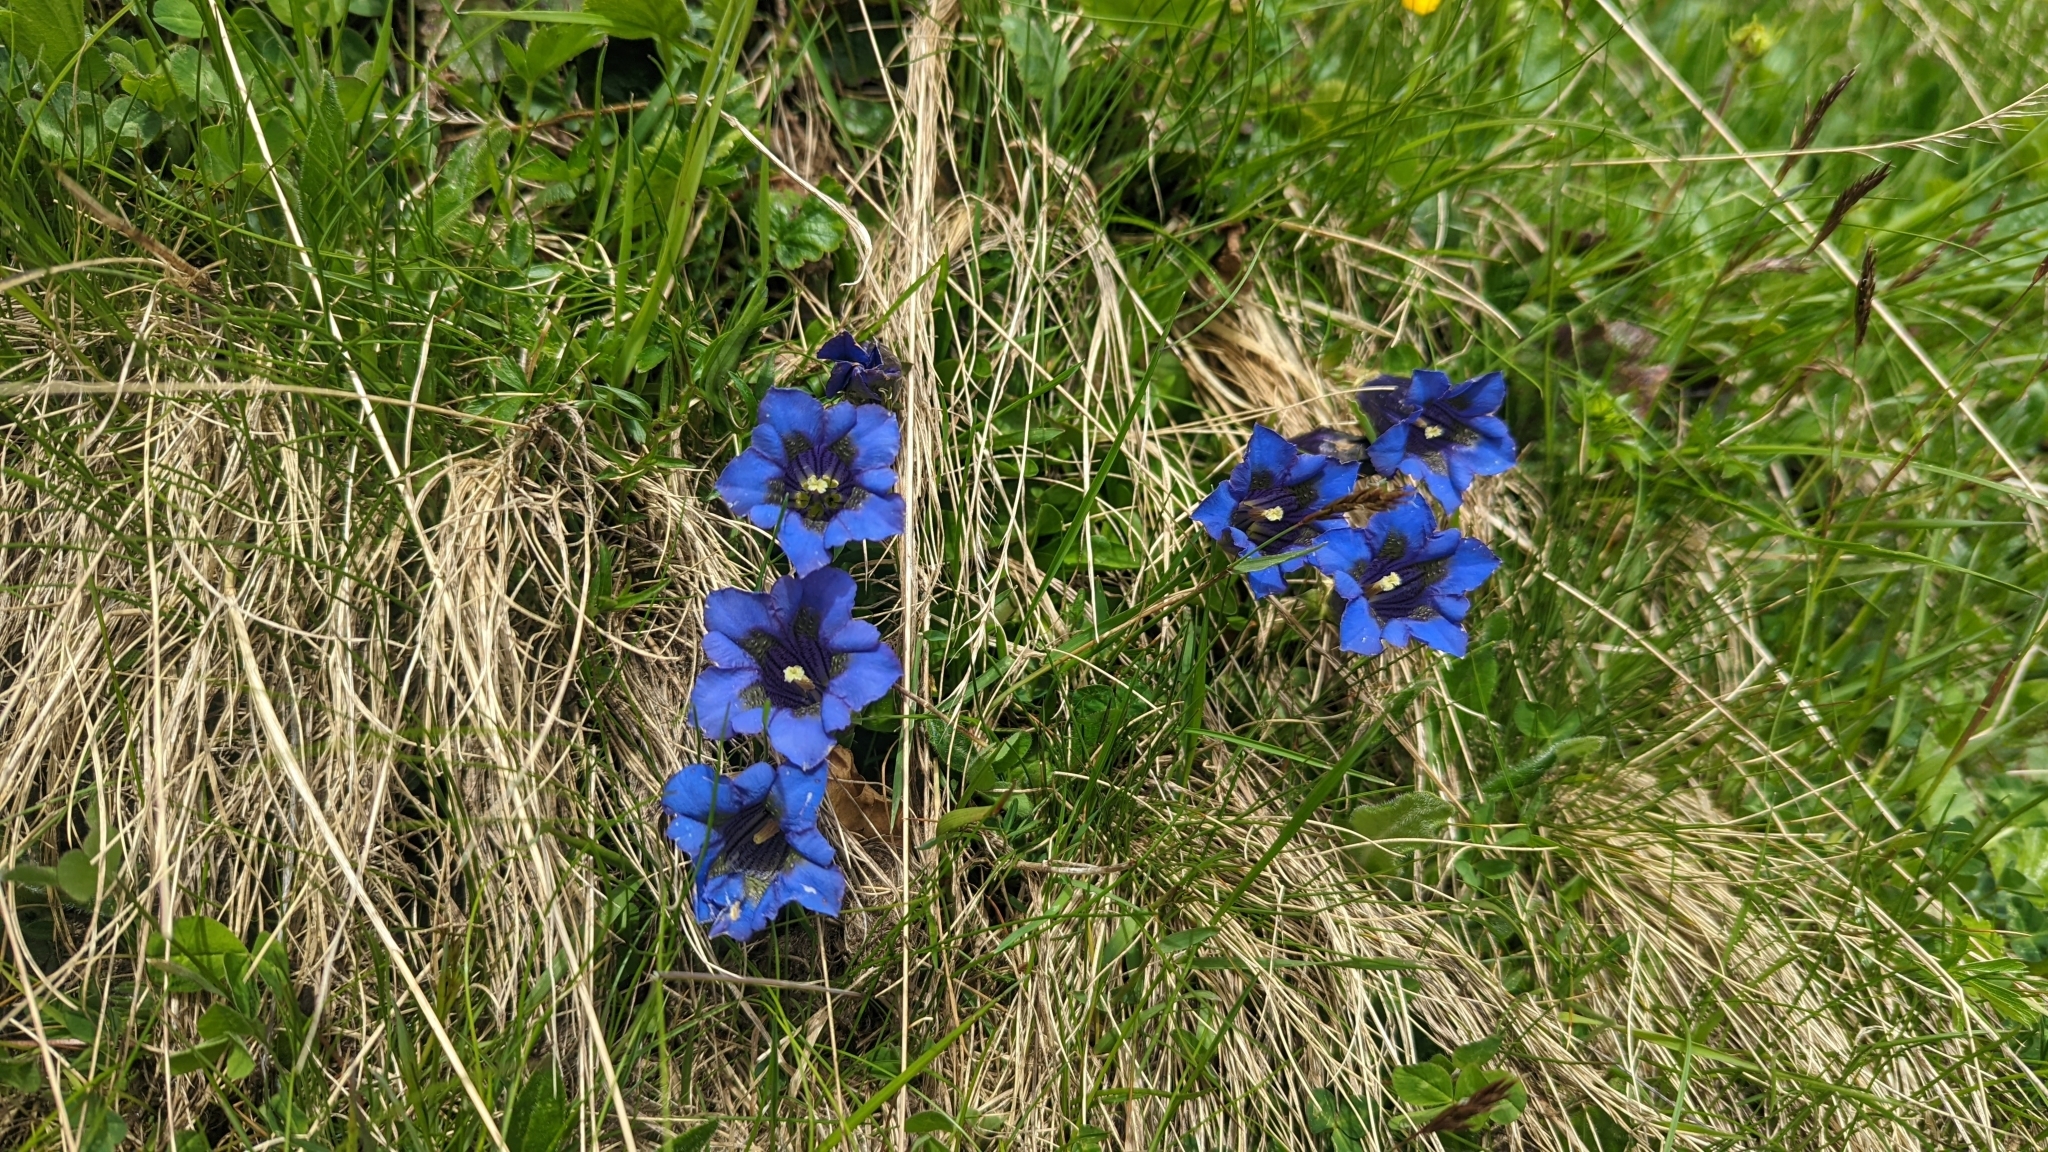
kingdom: Plantae
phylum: Tracheophyta
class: Magnoliopsida
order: Gentianales
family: Gentianaceae
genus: Gentiana
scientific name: Gentiana acaulis
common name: Trumpet gentian
